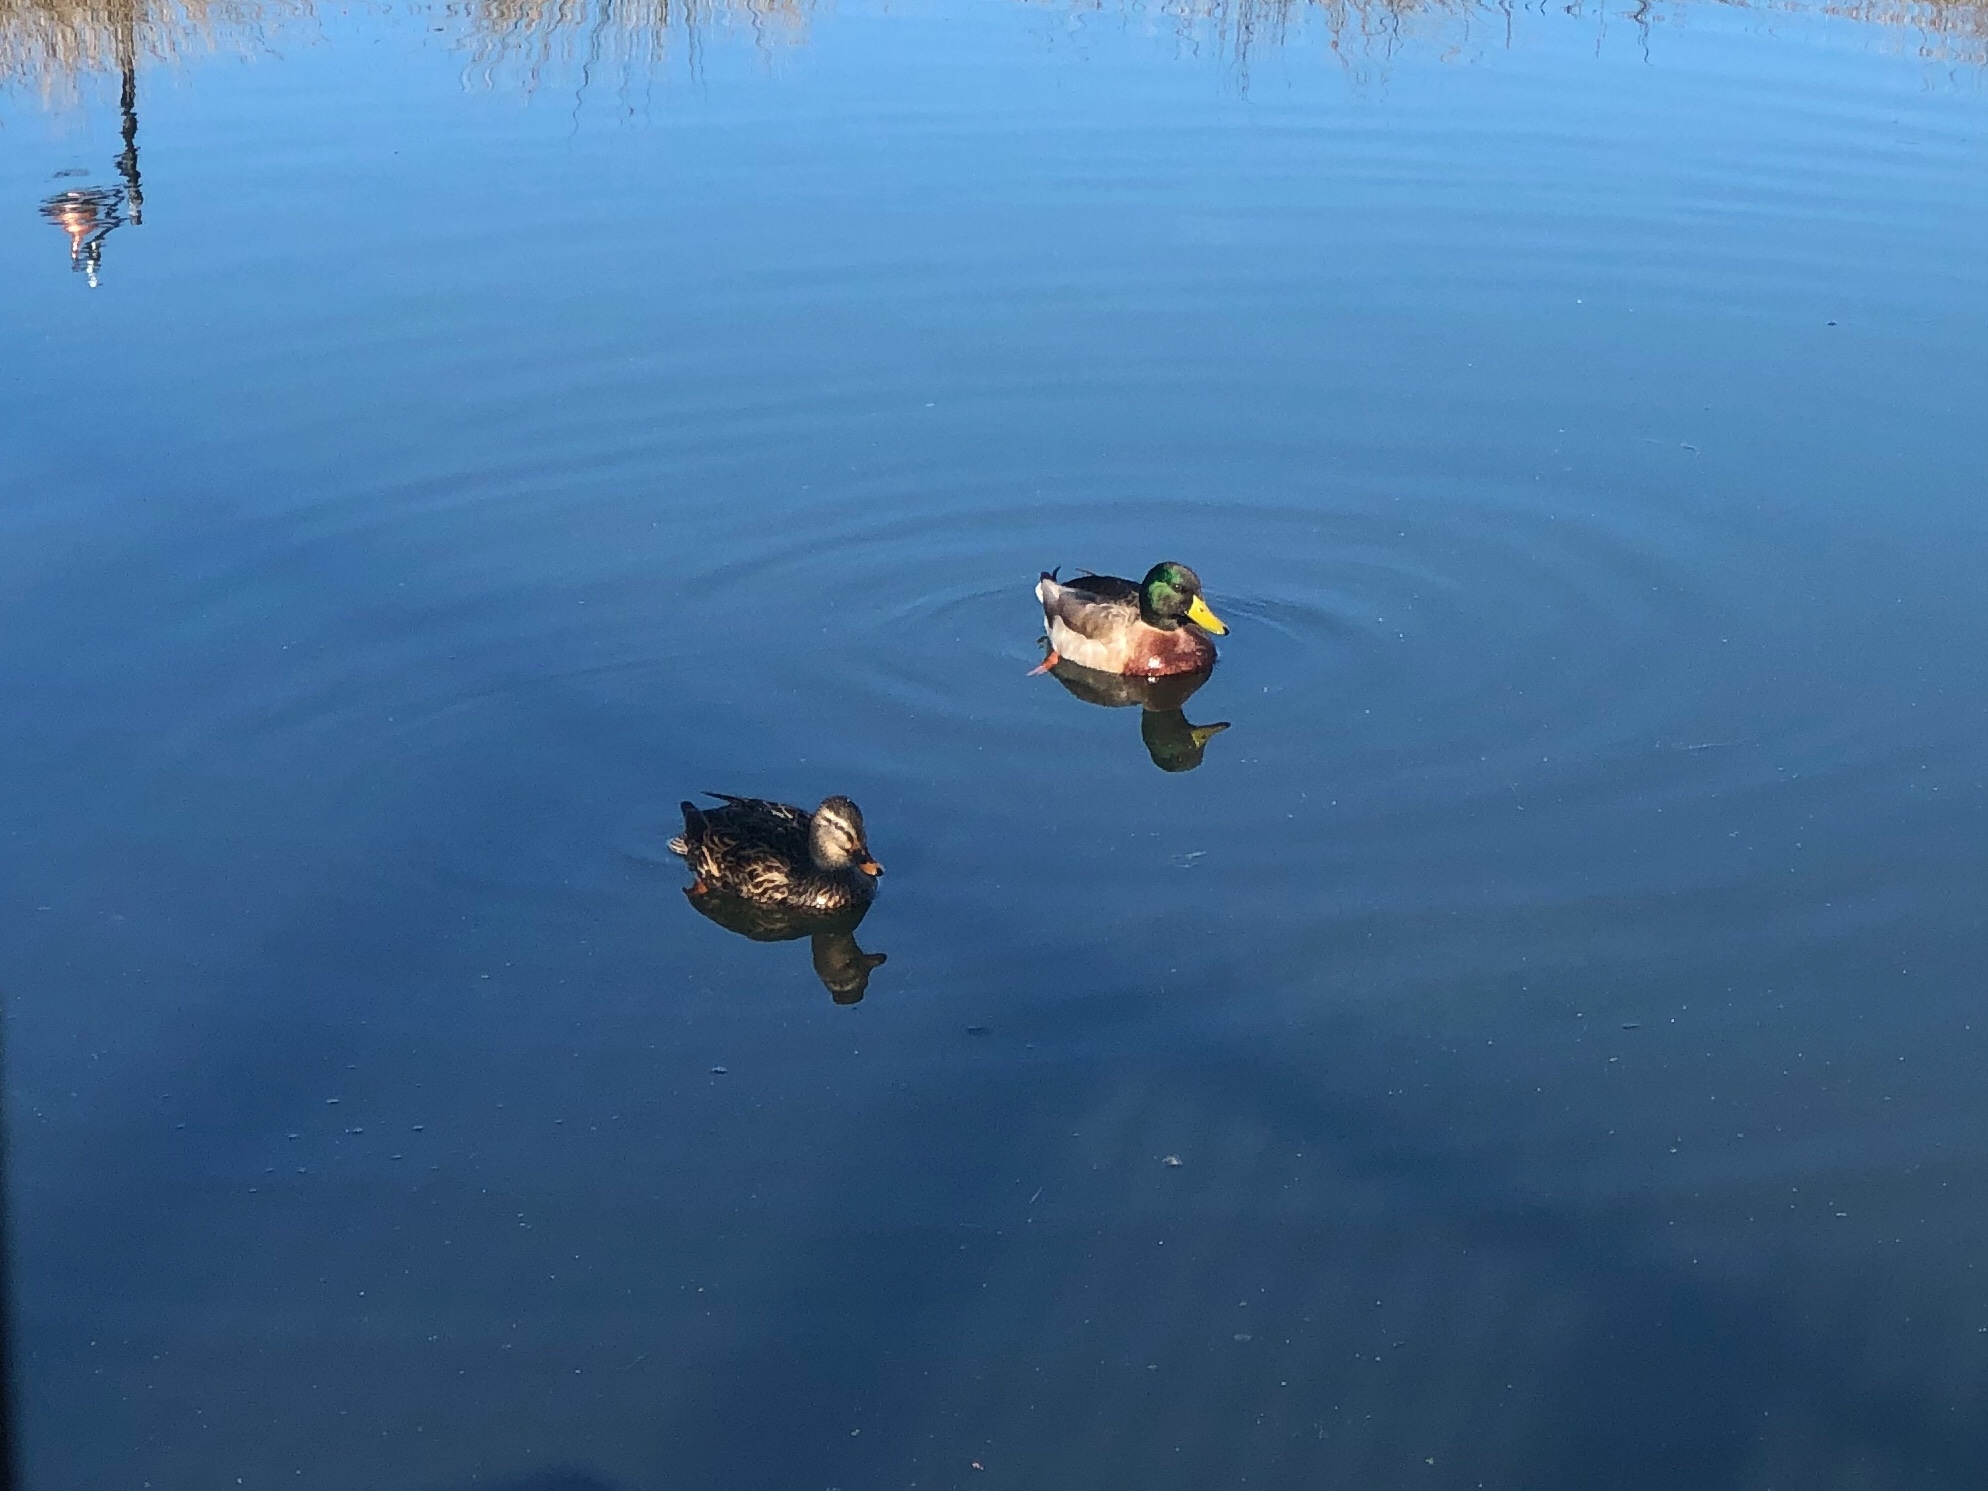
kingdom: Animalia
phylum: Chordata
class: Aves
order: Anseriformes
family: Anatidae
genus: Anas
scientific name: Anas platyrhynchos
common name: Mallard
